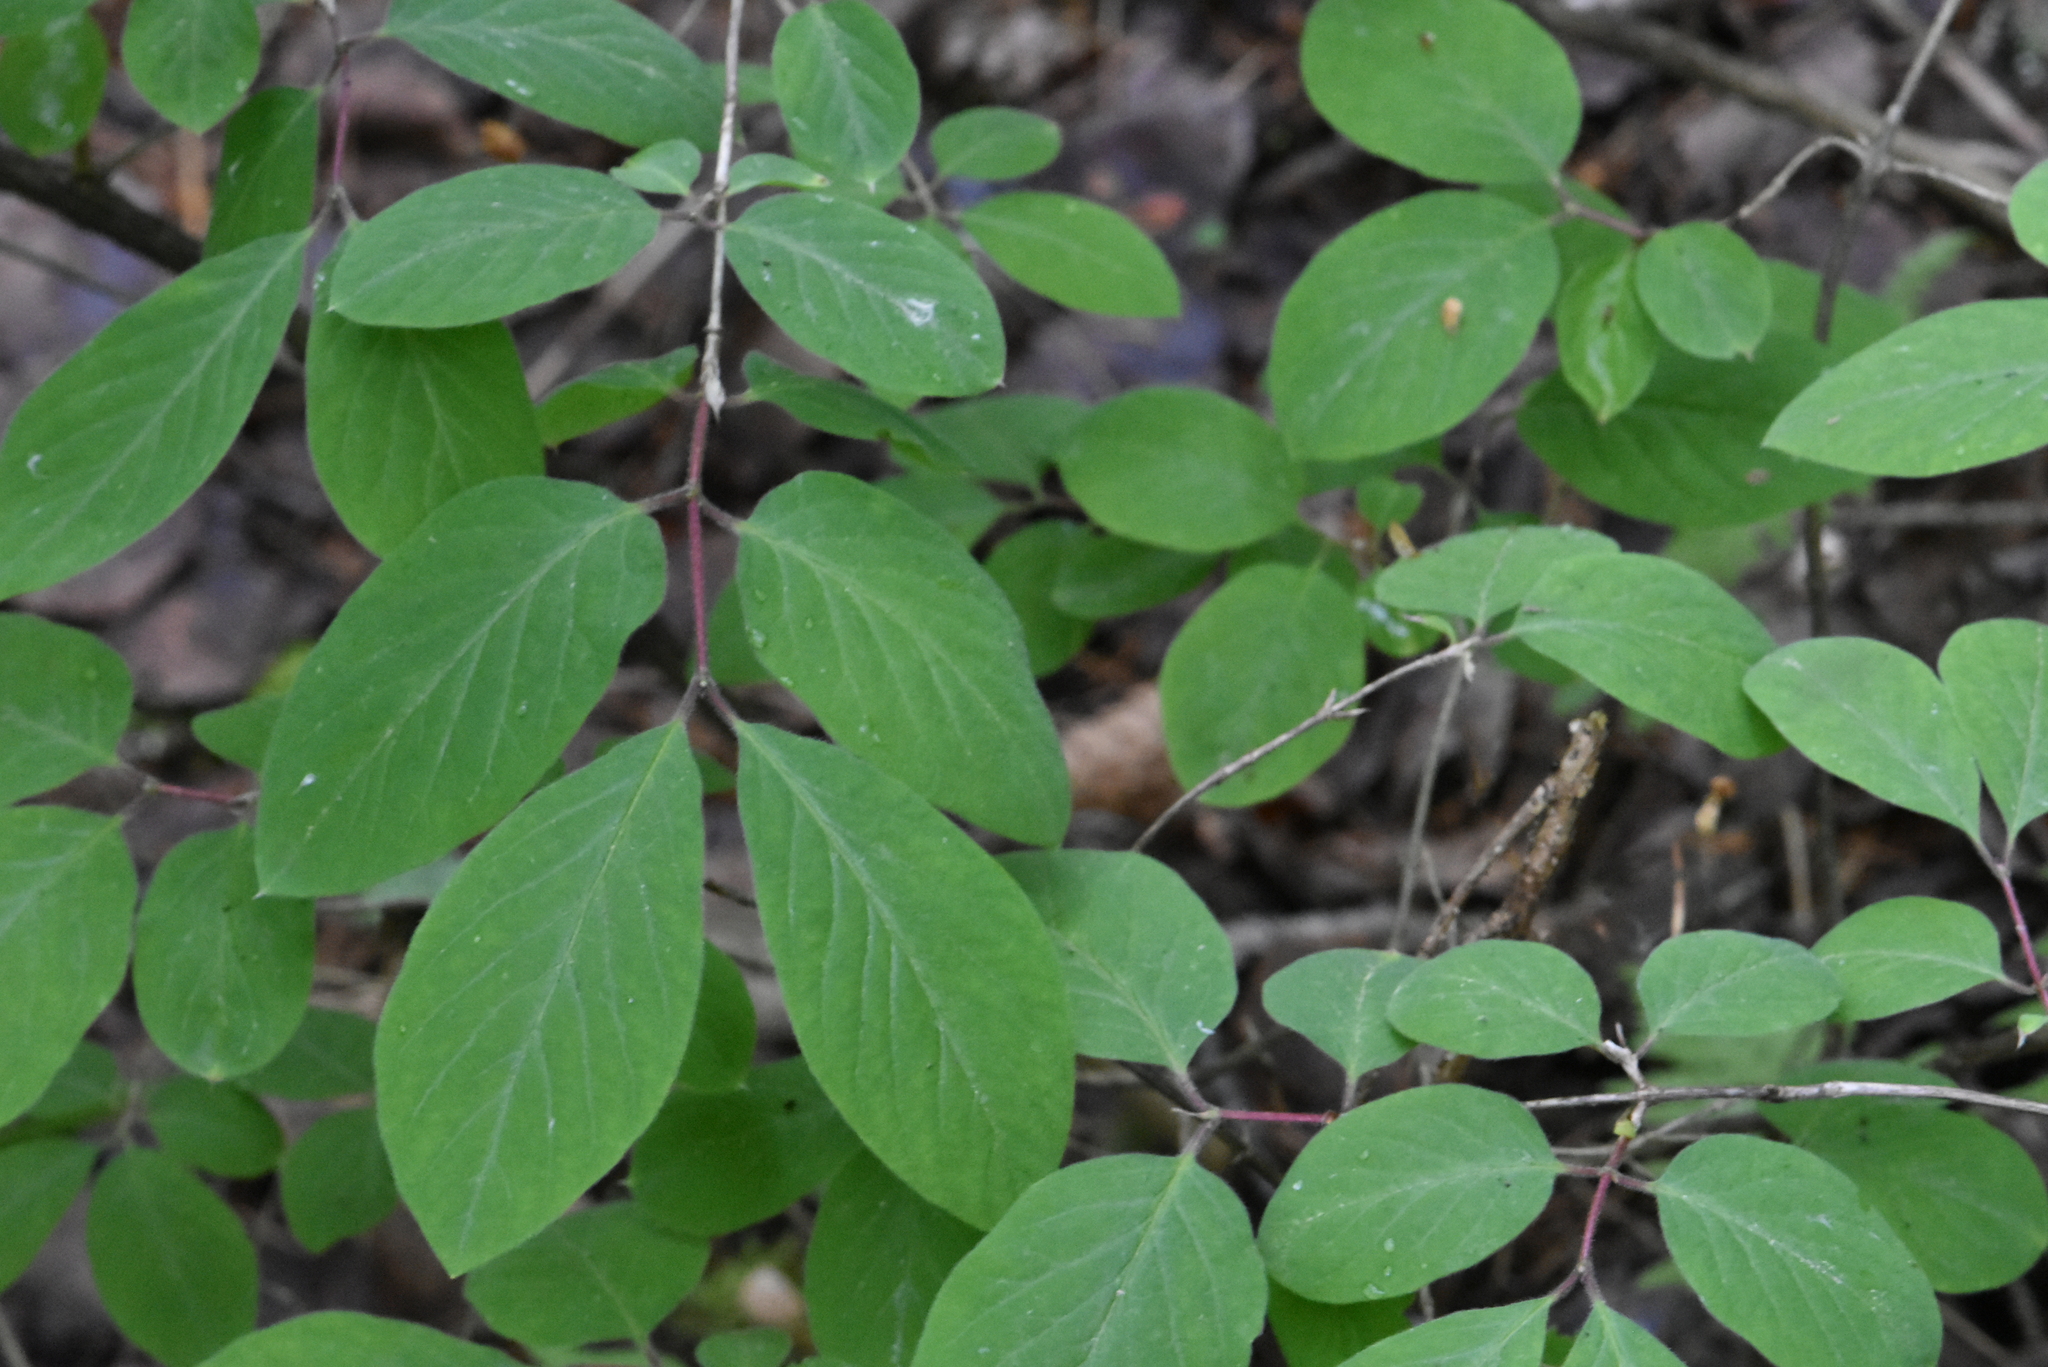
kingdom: Plantae
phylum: Tracheophyta
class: Magnoliopsida
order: Dipsacales
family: Caprifoliaceae
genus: Lonicera
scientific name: Lonicera xylosteum
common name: Fly honeysuckle
